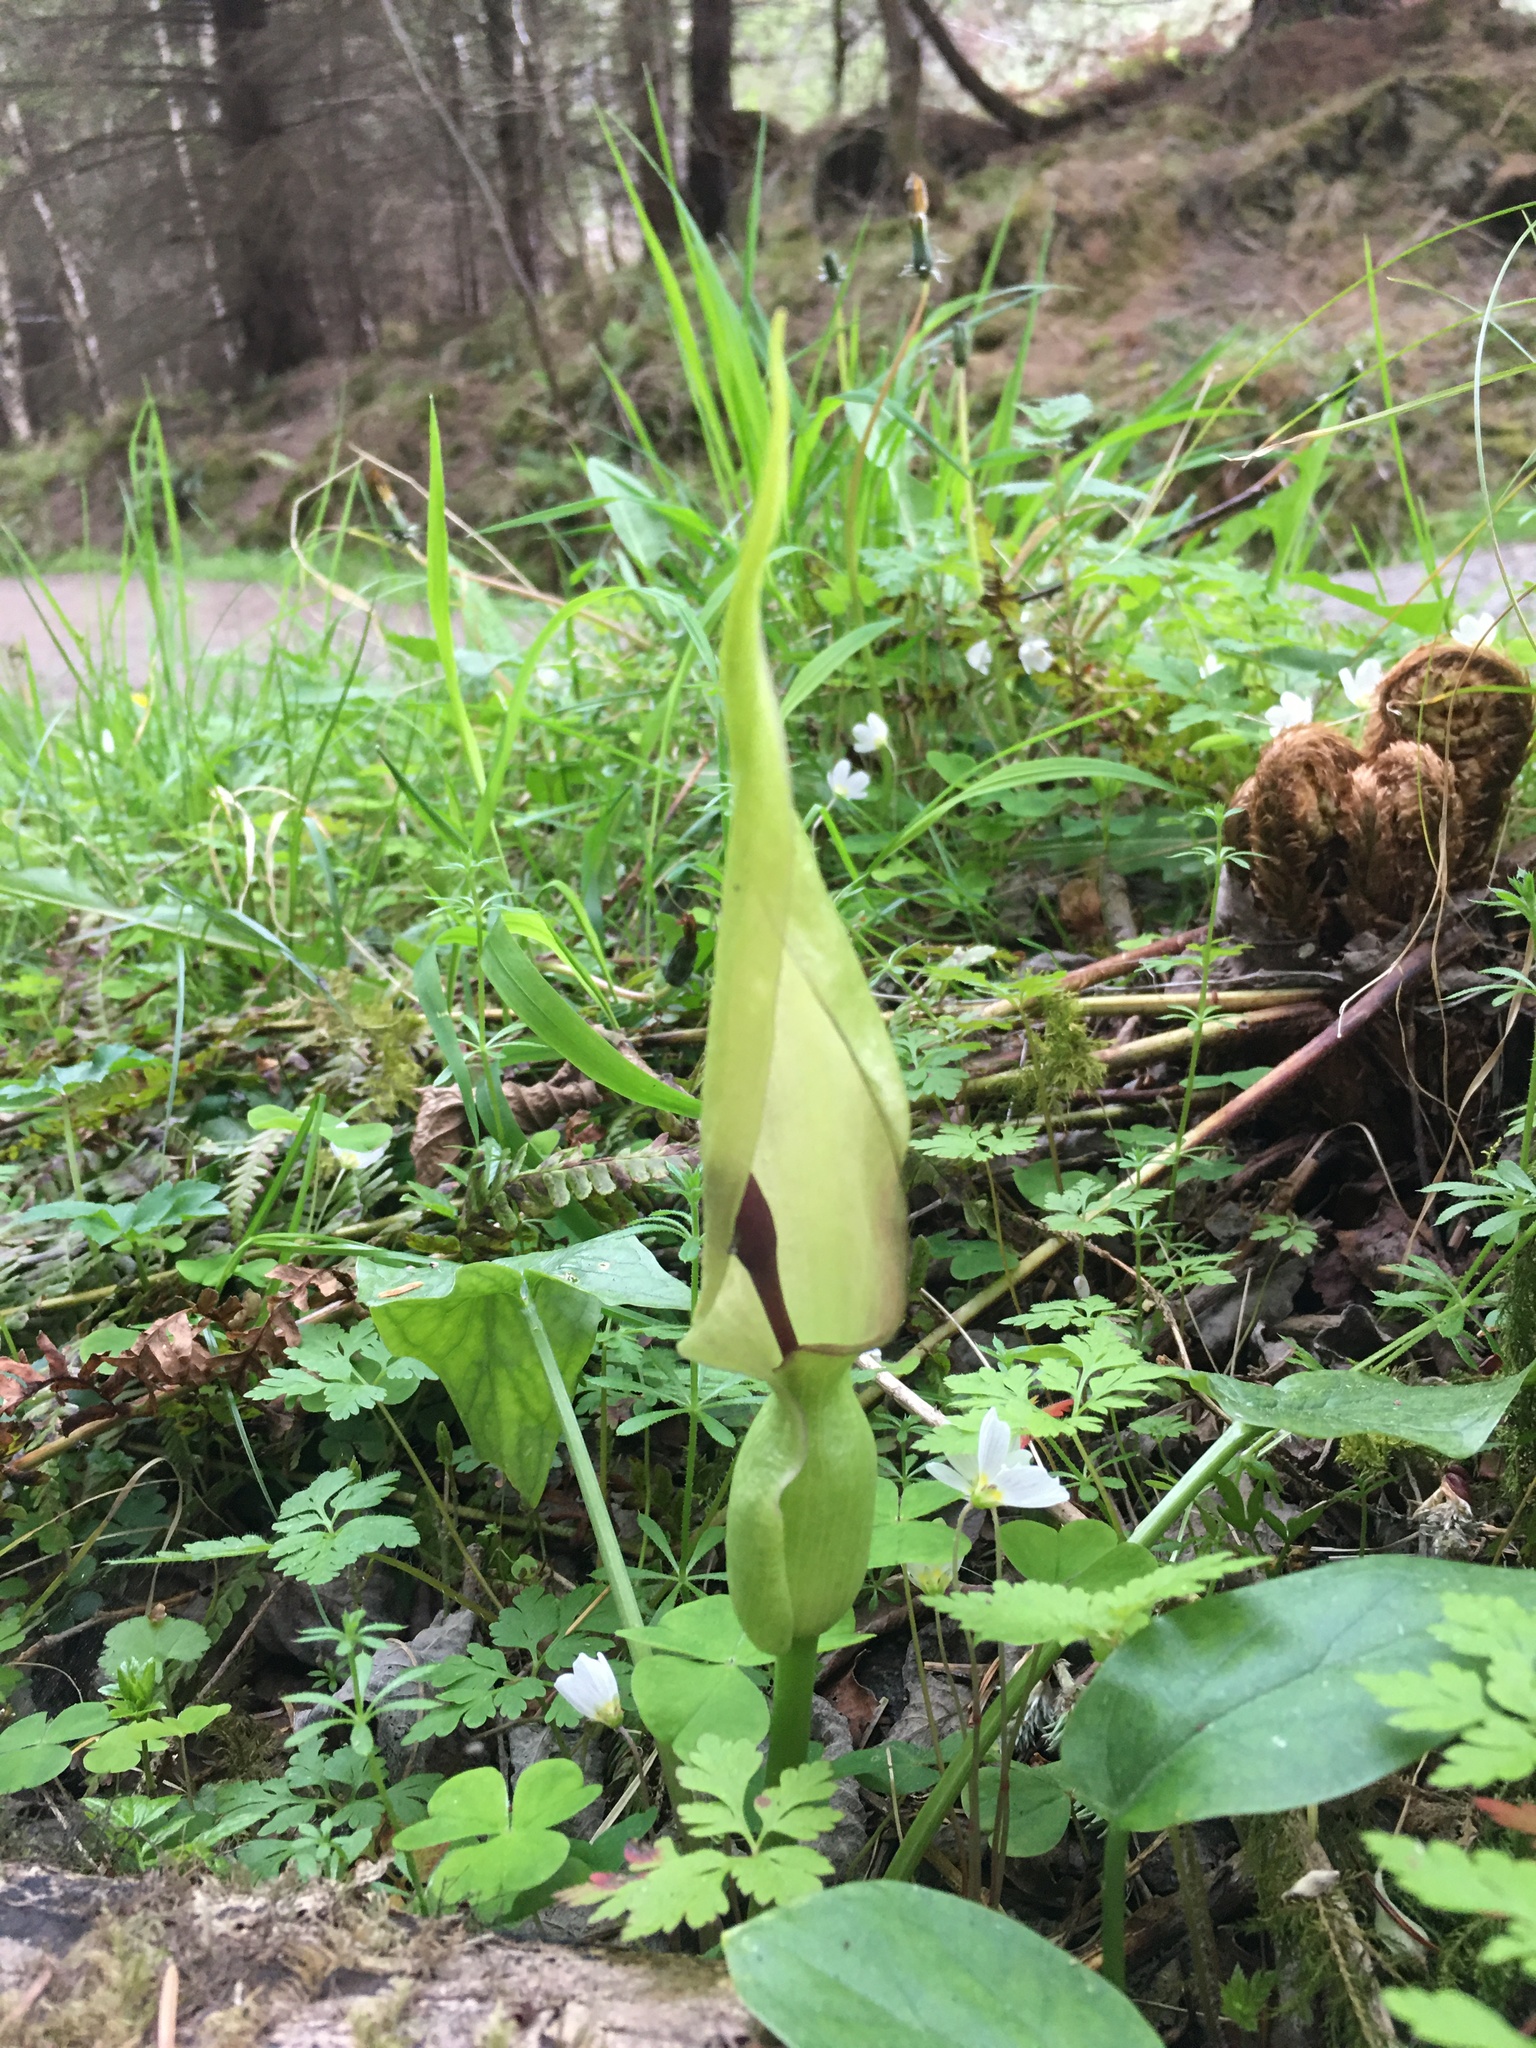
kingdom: Plantae
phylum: Tracheophyta
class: Liliopsida
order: Alismatales
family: Araceae
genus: Arum
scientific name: Arum maculatum
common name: Lords-and-ladies
